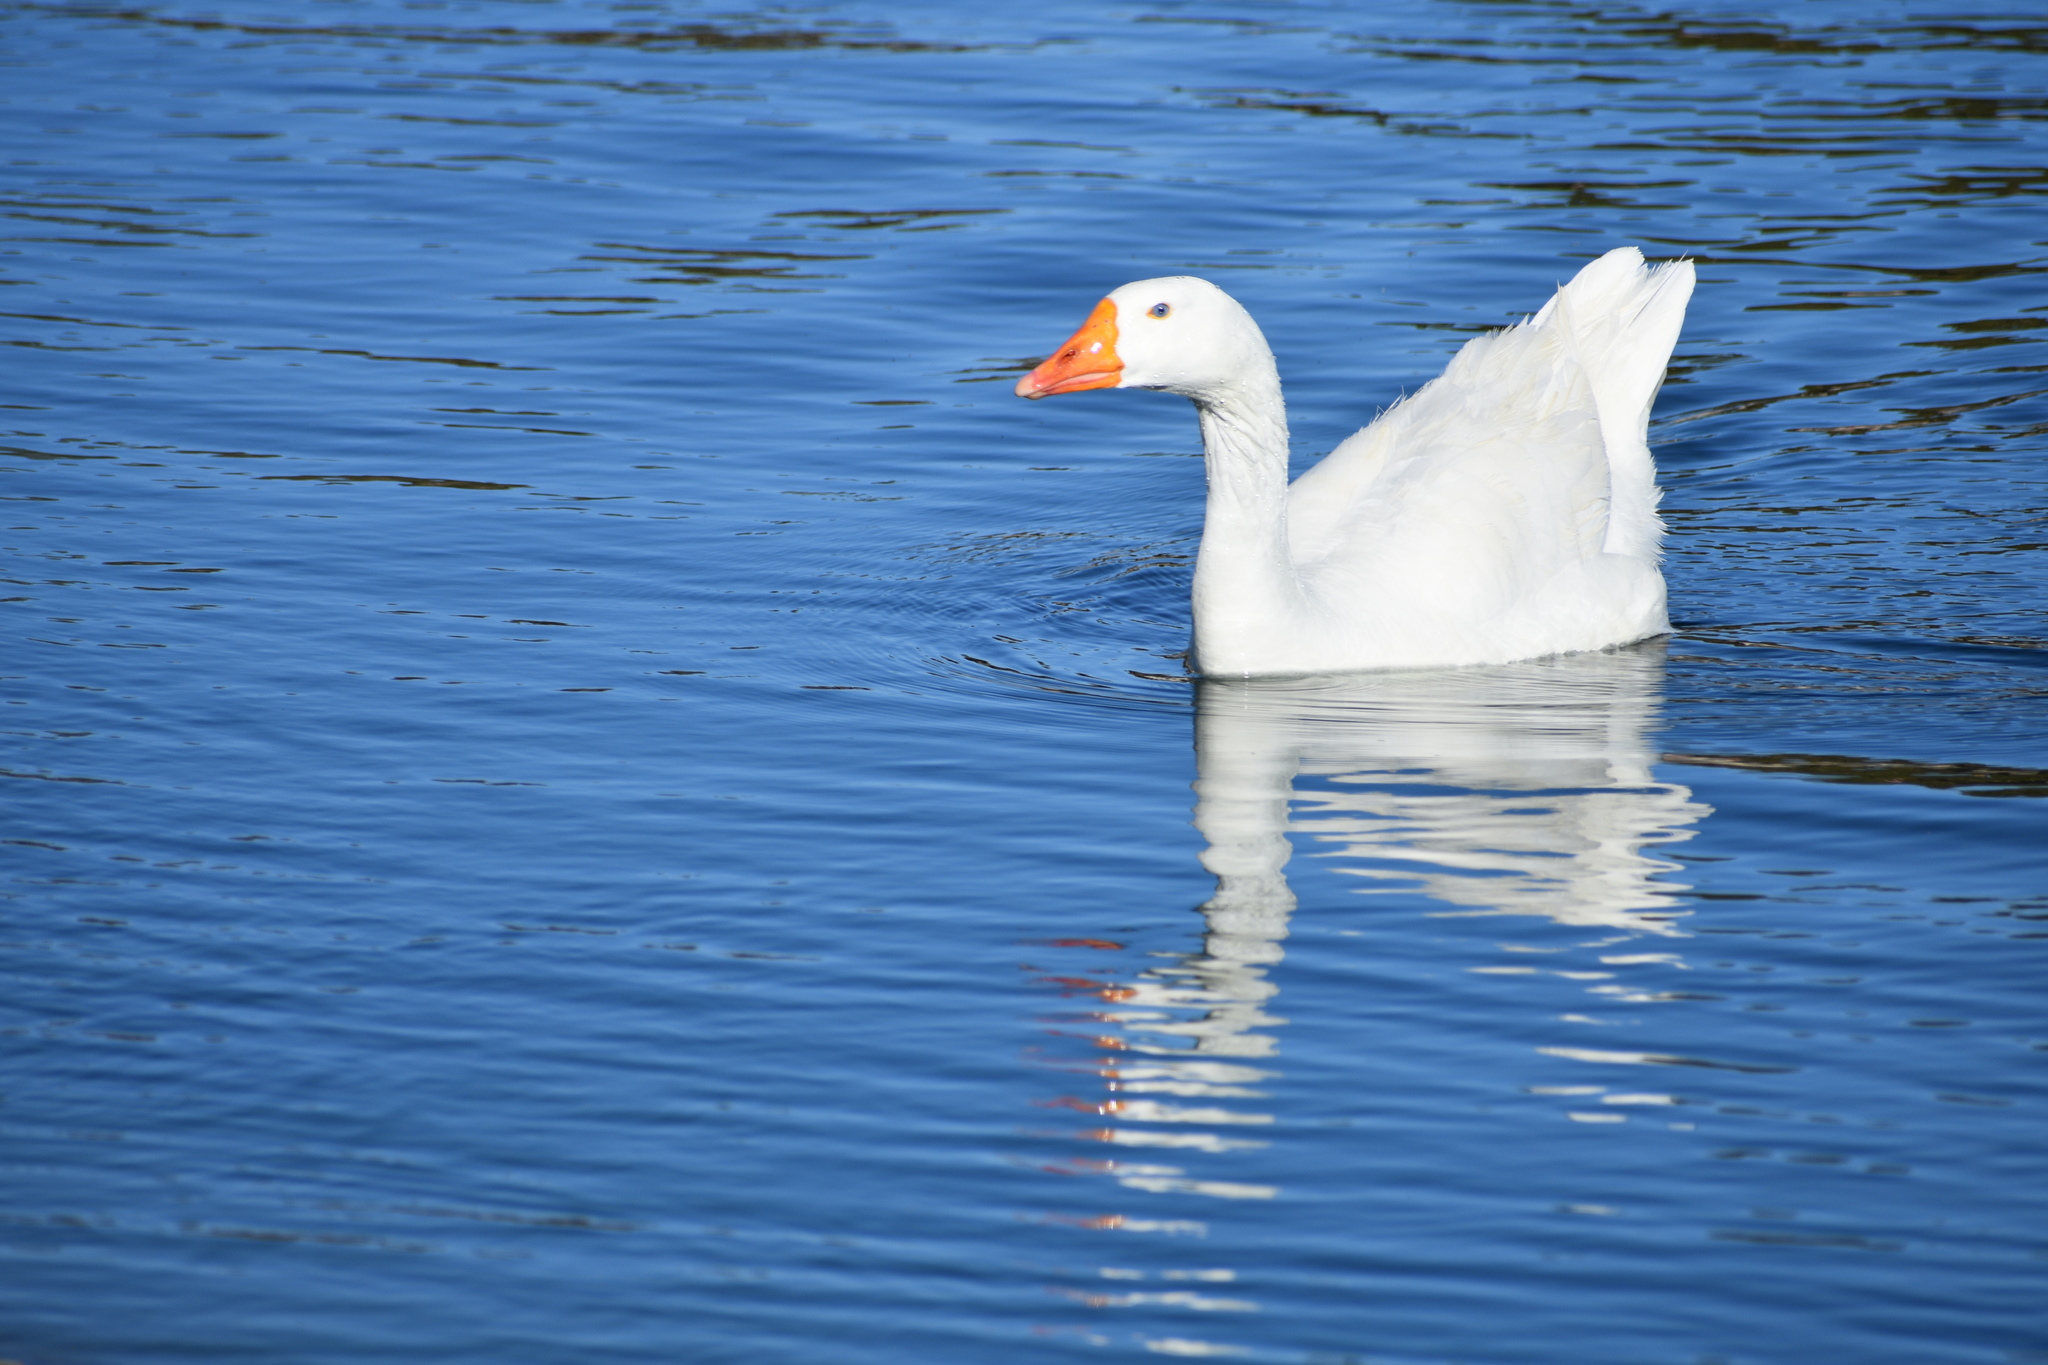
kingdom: Animalia
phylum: Chordata
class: Aves
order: Anseriformes
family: Anatidae
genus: Anser
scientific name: Anser
